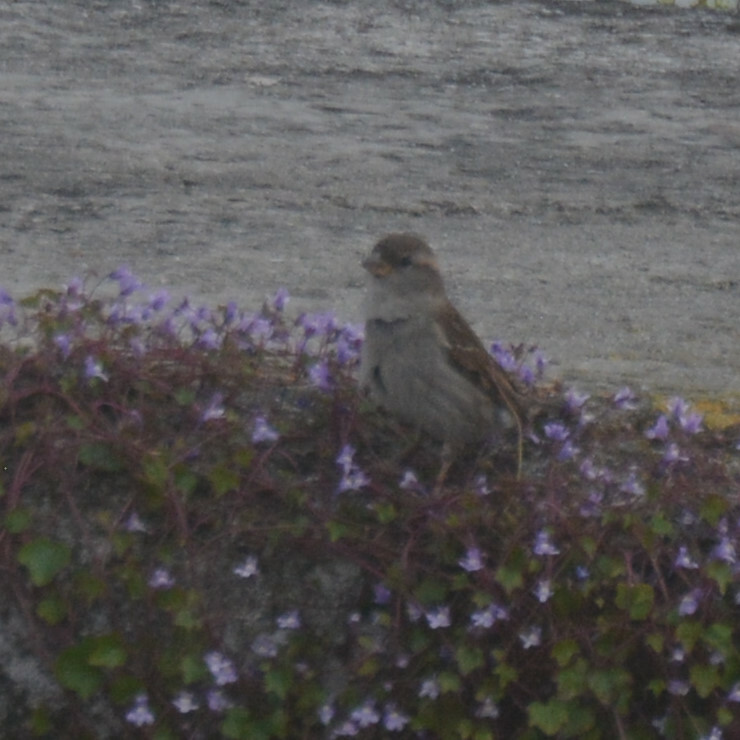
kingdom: Animalia
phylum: Chordata
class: Aves
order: Passeriformes
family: Passeridae
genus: Passer
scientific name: Passer domesticus
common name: House sparrow
